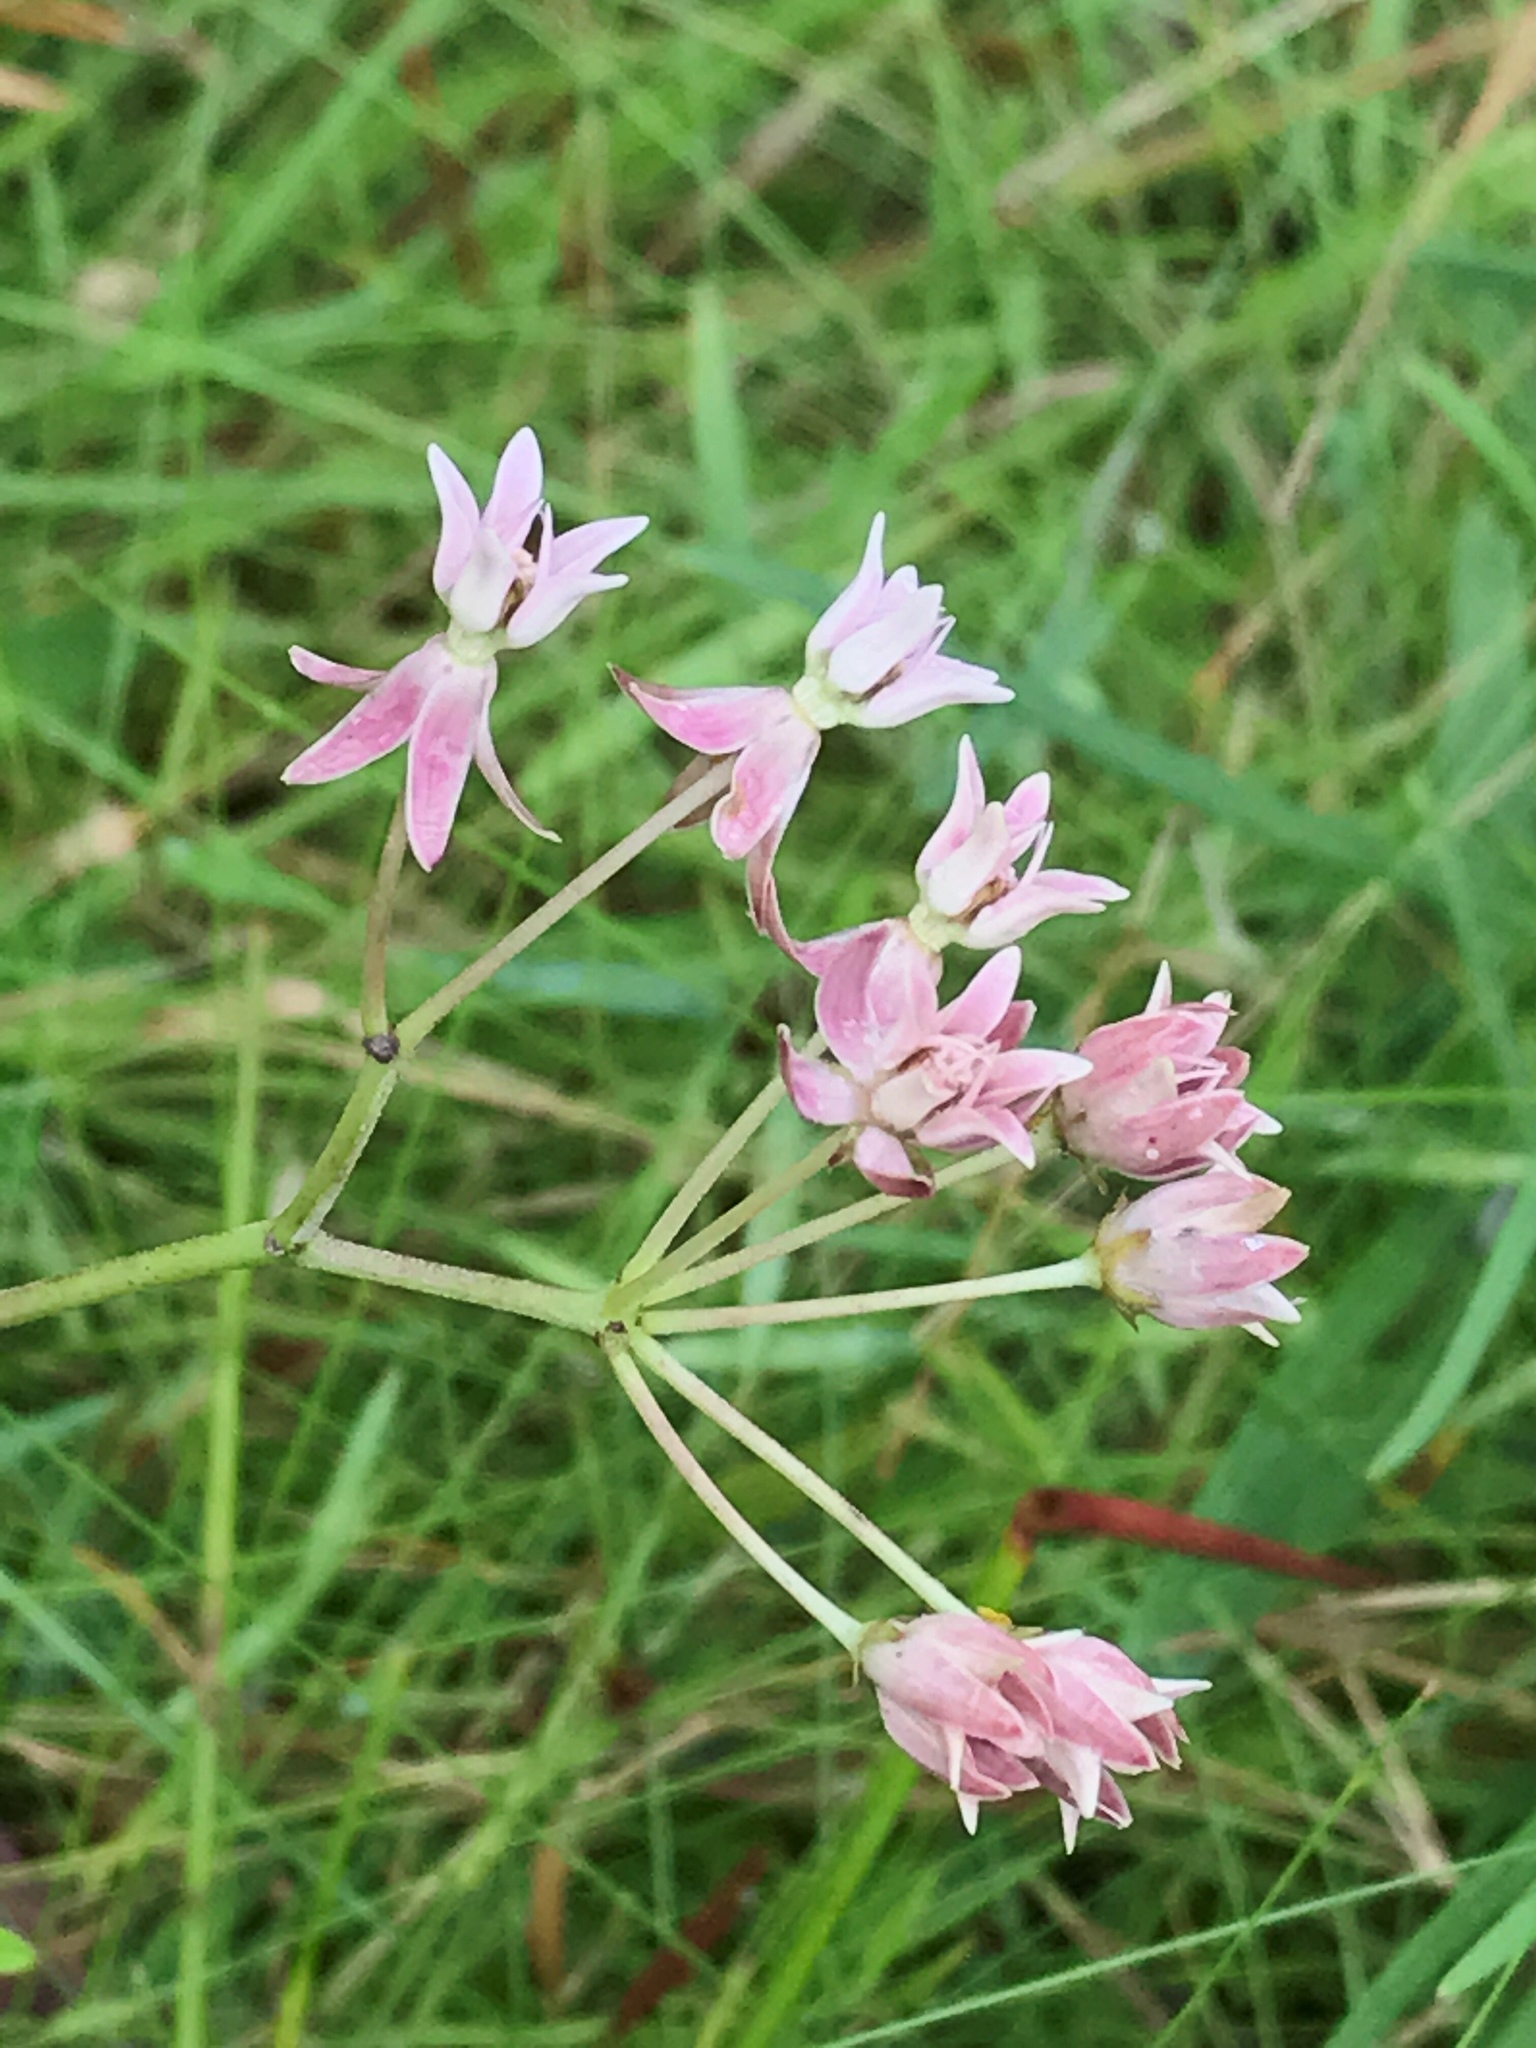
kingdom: Plantae
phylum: Tracheophyta
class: Magnoliopsida
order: Gentianales
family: Apocynaceae
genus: Asclepias
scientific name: Asclepias rubra
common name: Red milkweed
